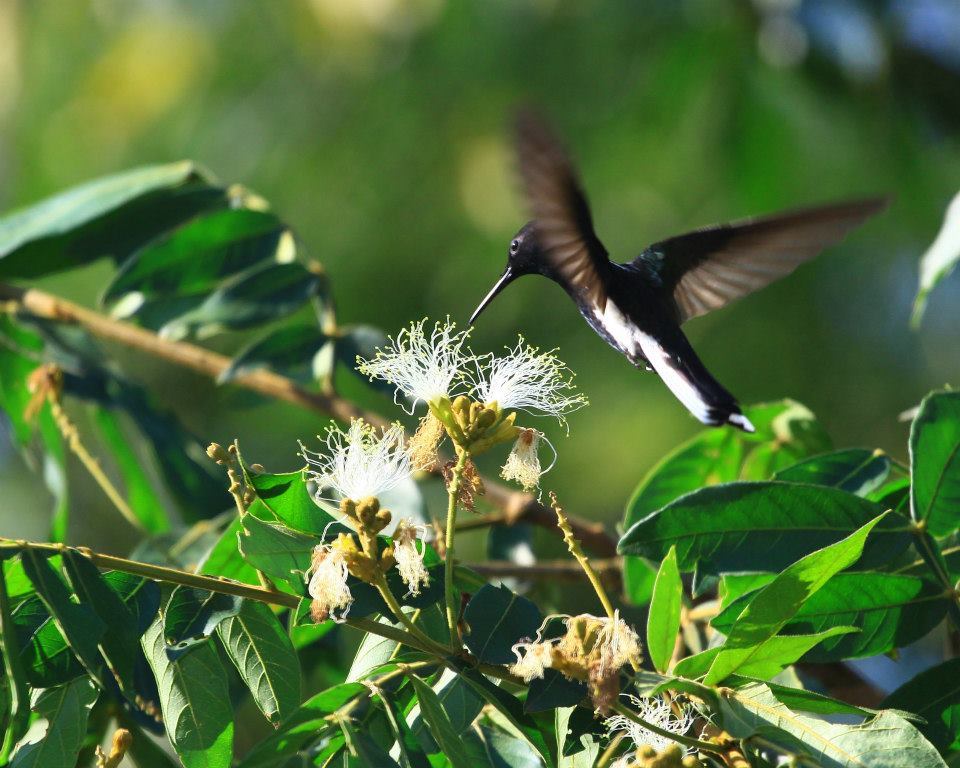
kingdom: Animalia
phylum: Chordata
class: Aves
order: Apodiformes
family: Trochilidae
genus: Florisuga
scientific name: Florisuga fusca
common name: Black jacobin
